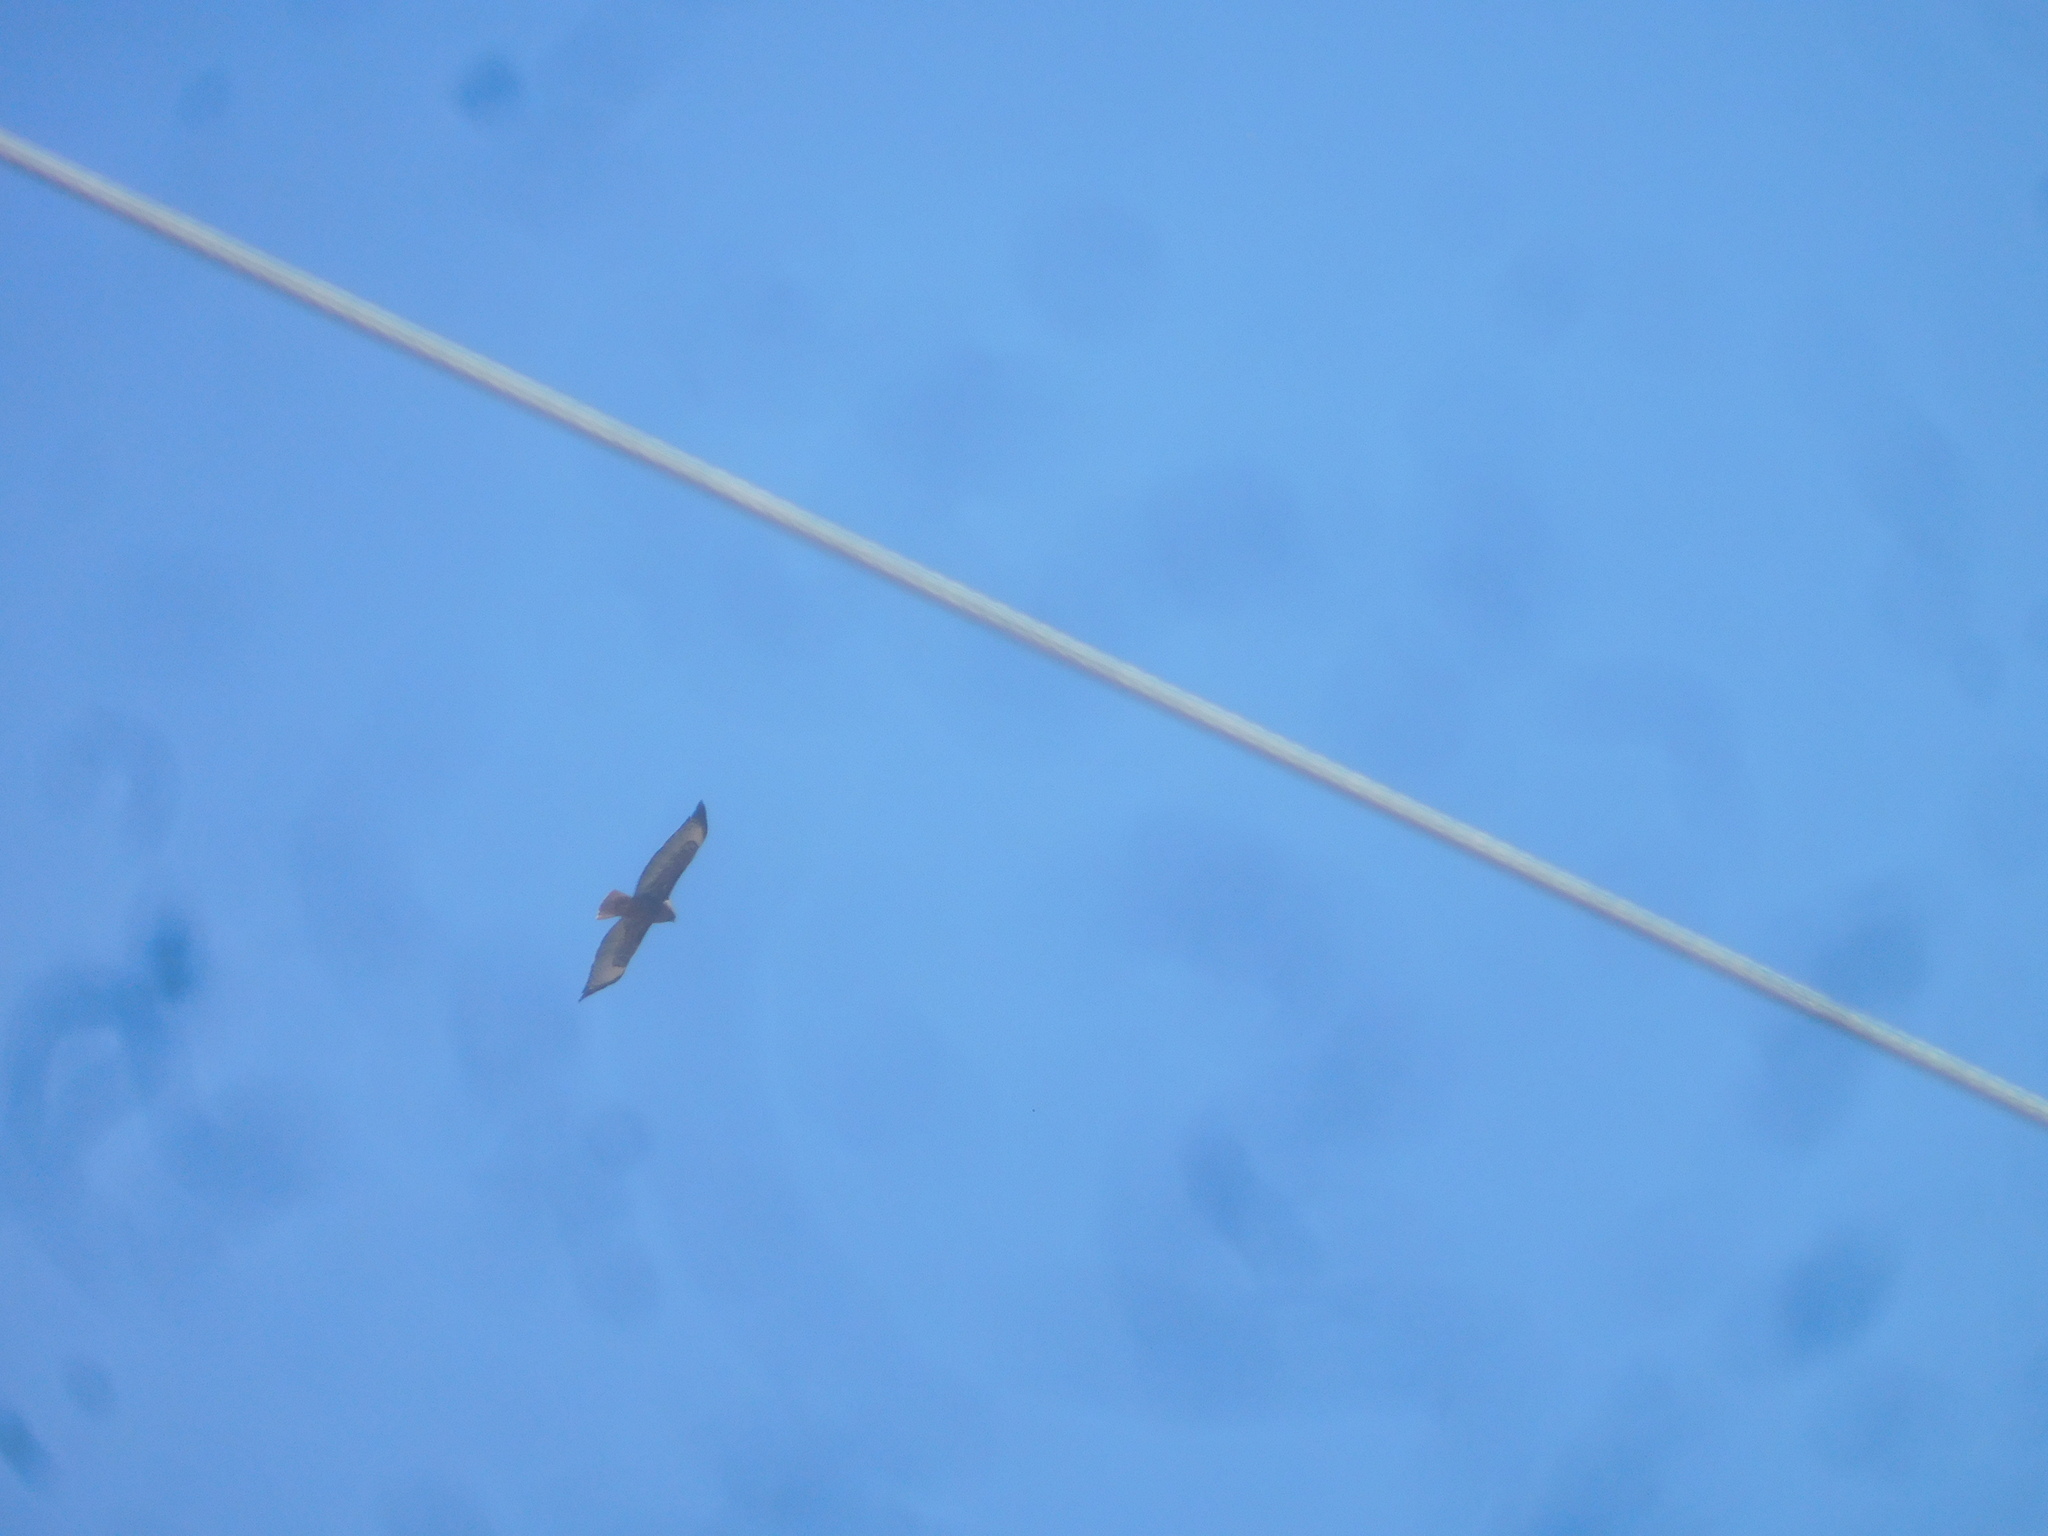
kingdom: Animalia
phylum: Chordata
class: Aves
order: Accipitriformes
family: Accipitridae
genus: Buteo
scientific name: Buteo jamaicensis
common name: Red-tailed hawk
